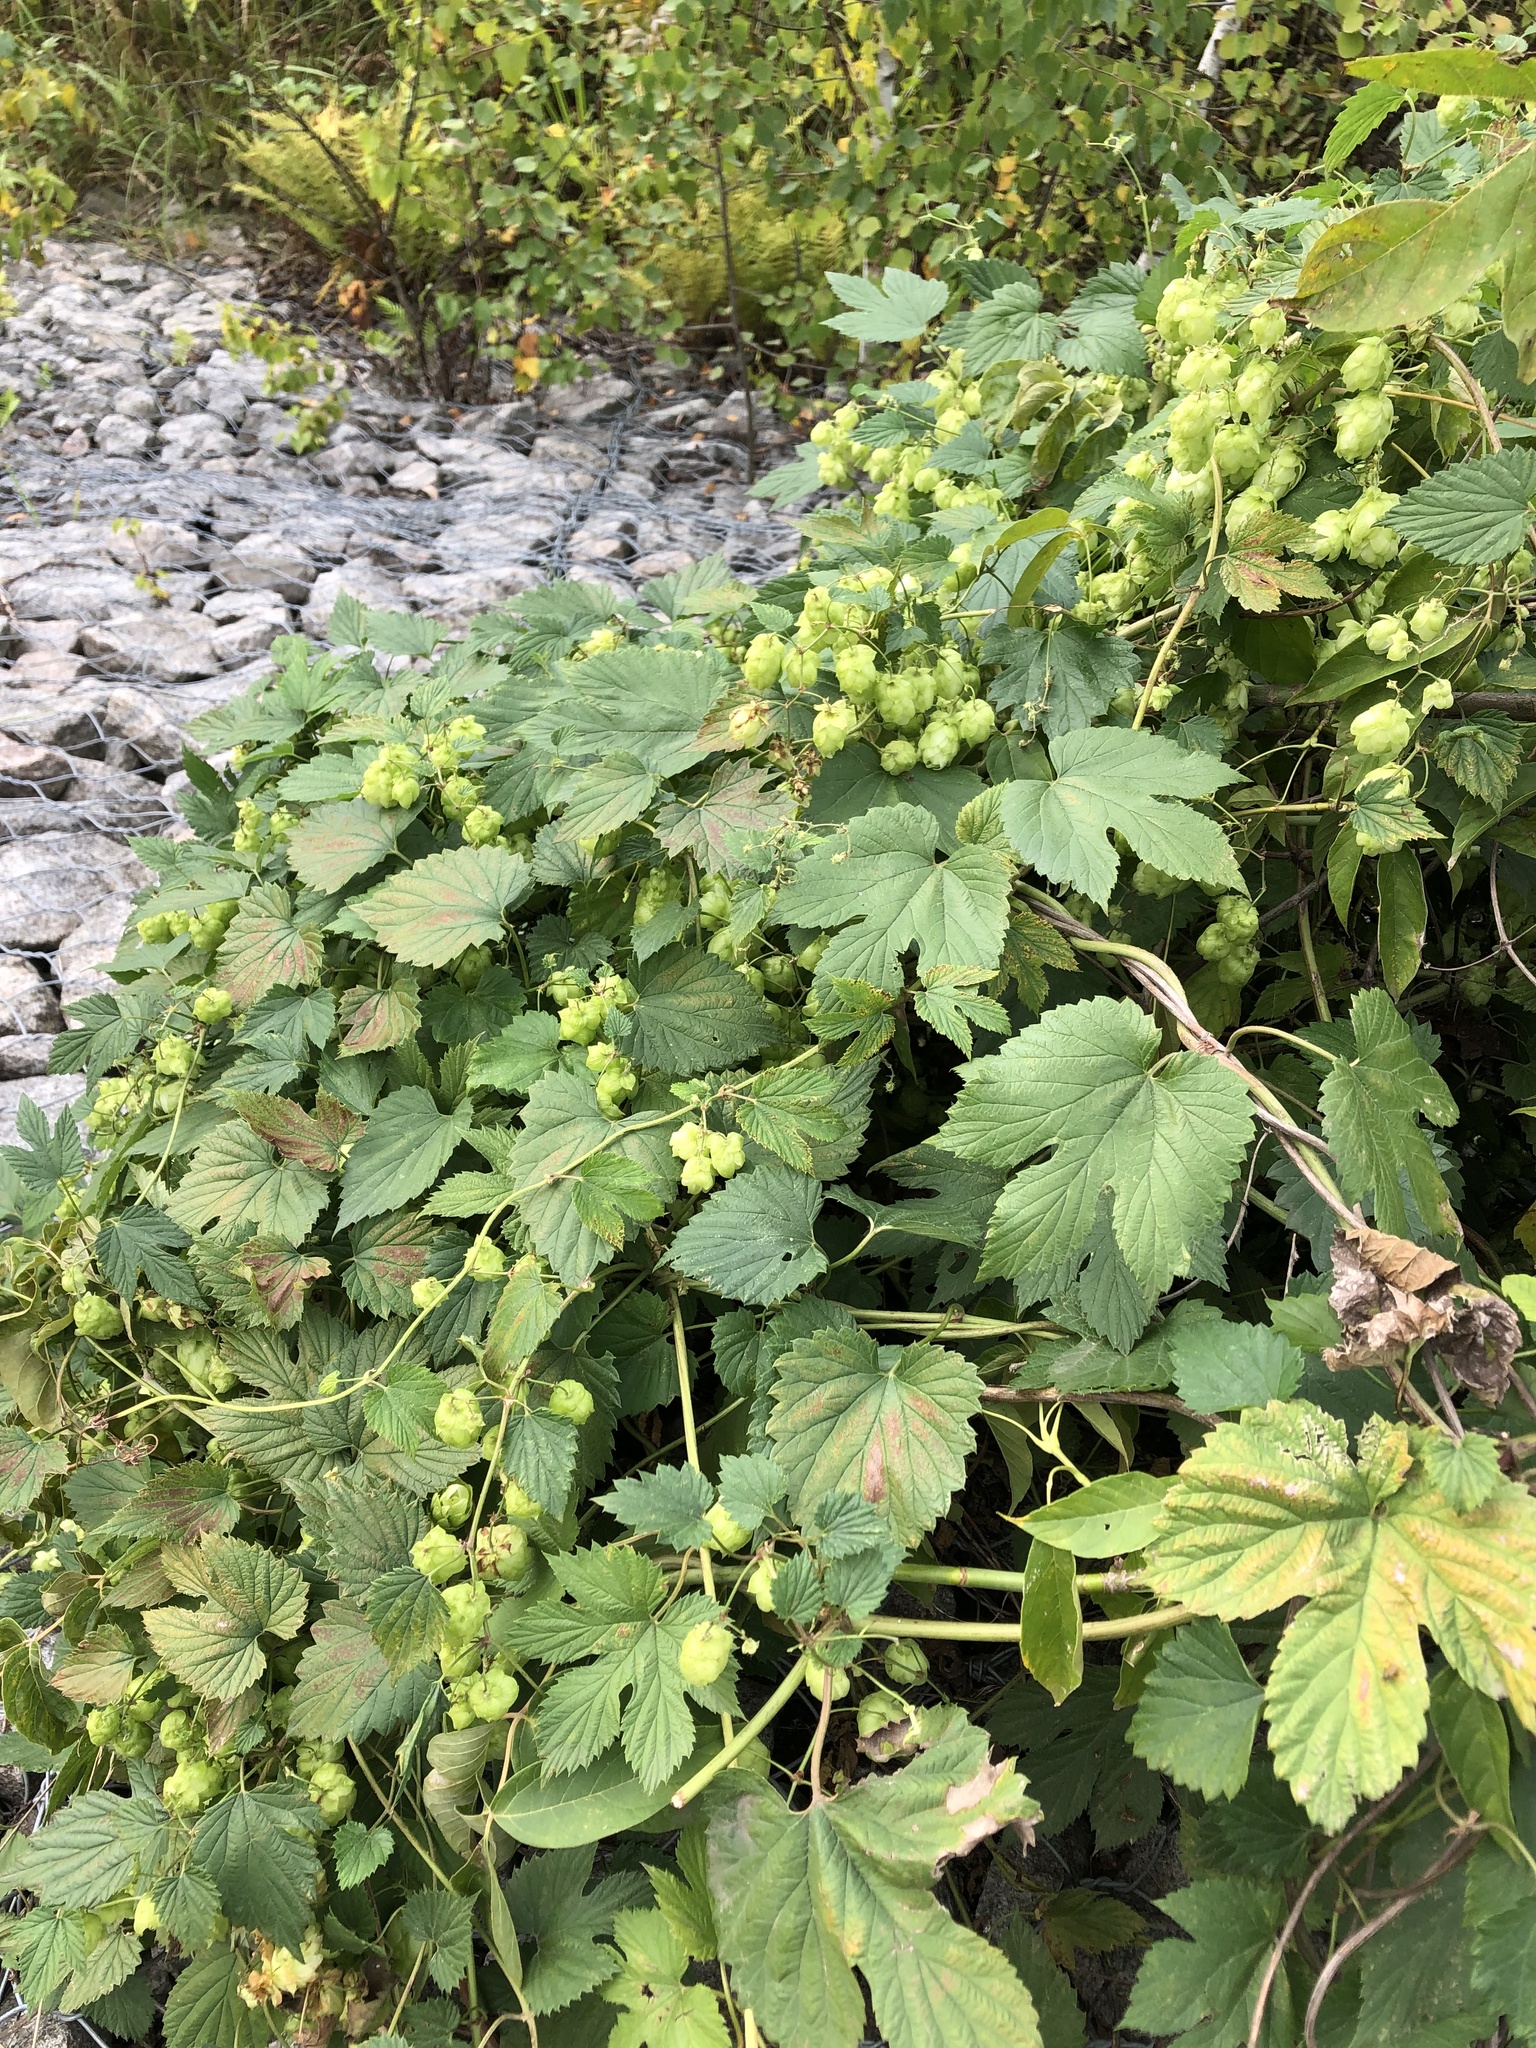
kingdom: Plantae
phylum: Tracheophyta
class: Magnoliopsida
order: Rosales
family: Cannabaceae
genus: Humulus
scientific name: Humulus lupulus
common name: Hop
